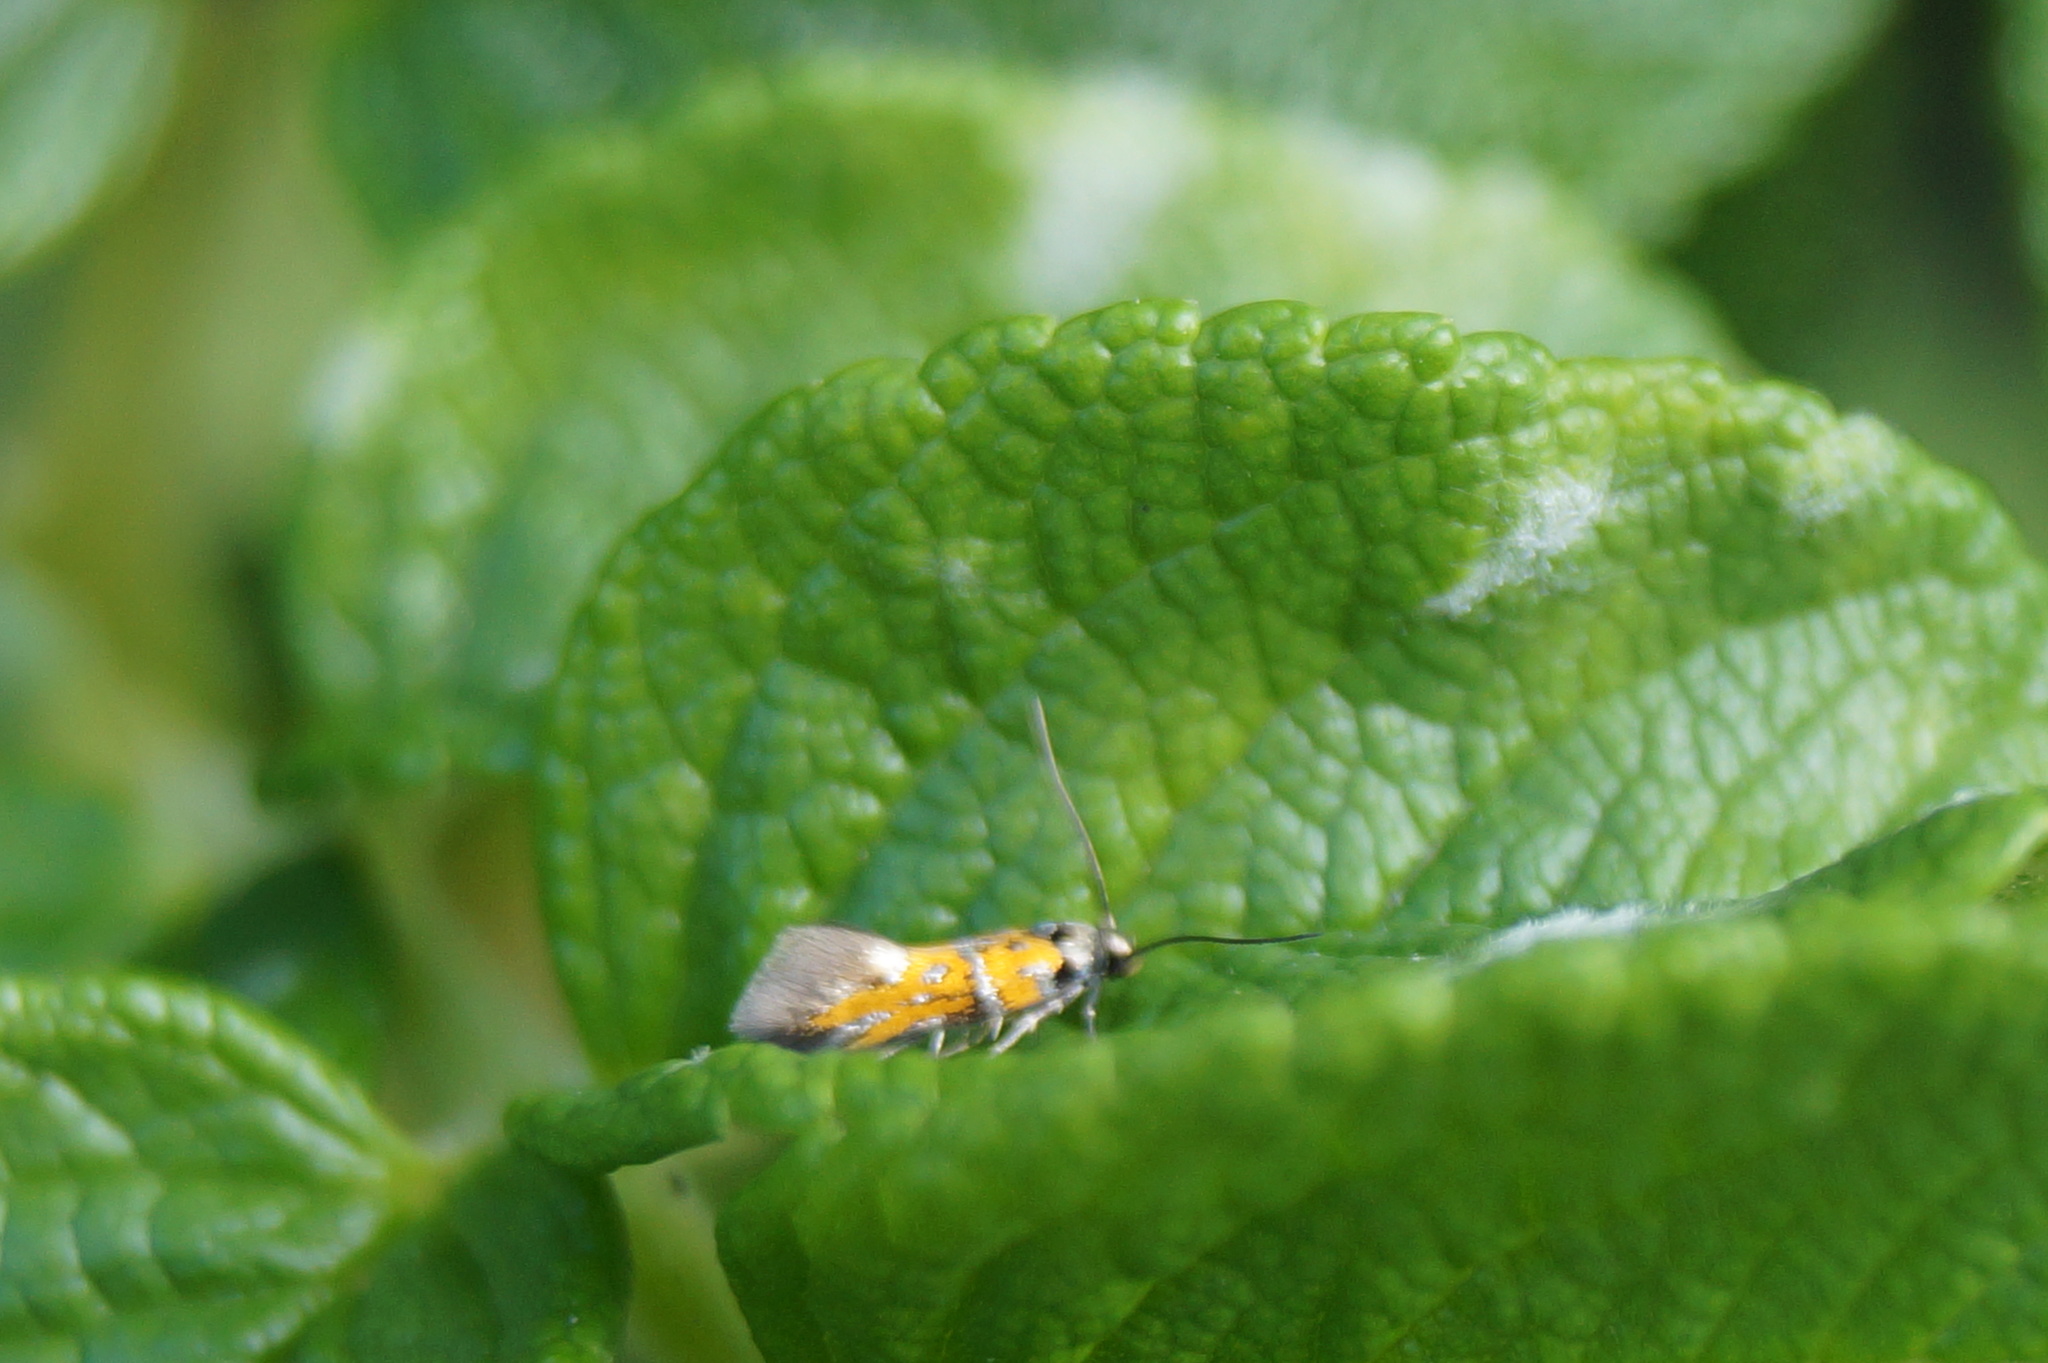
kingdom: Animalia
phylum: Arthropoda
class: Insecta
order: Lepidoptera
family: Gelechiidae
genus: Chrysoesthia
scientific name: Chrysoesthia drurella
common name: Flame neb
